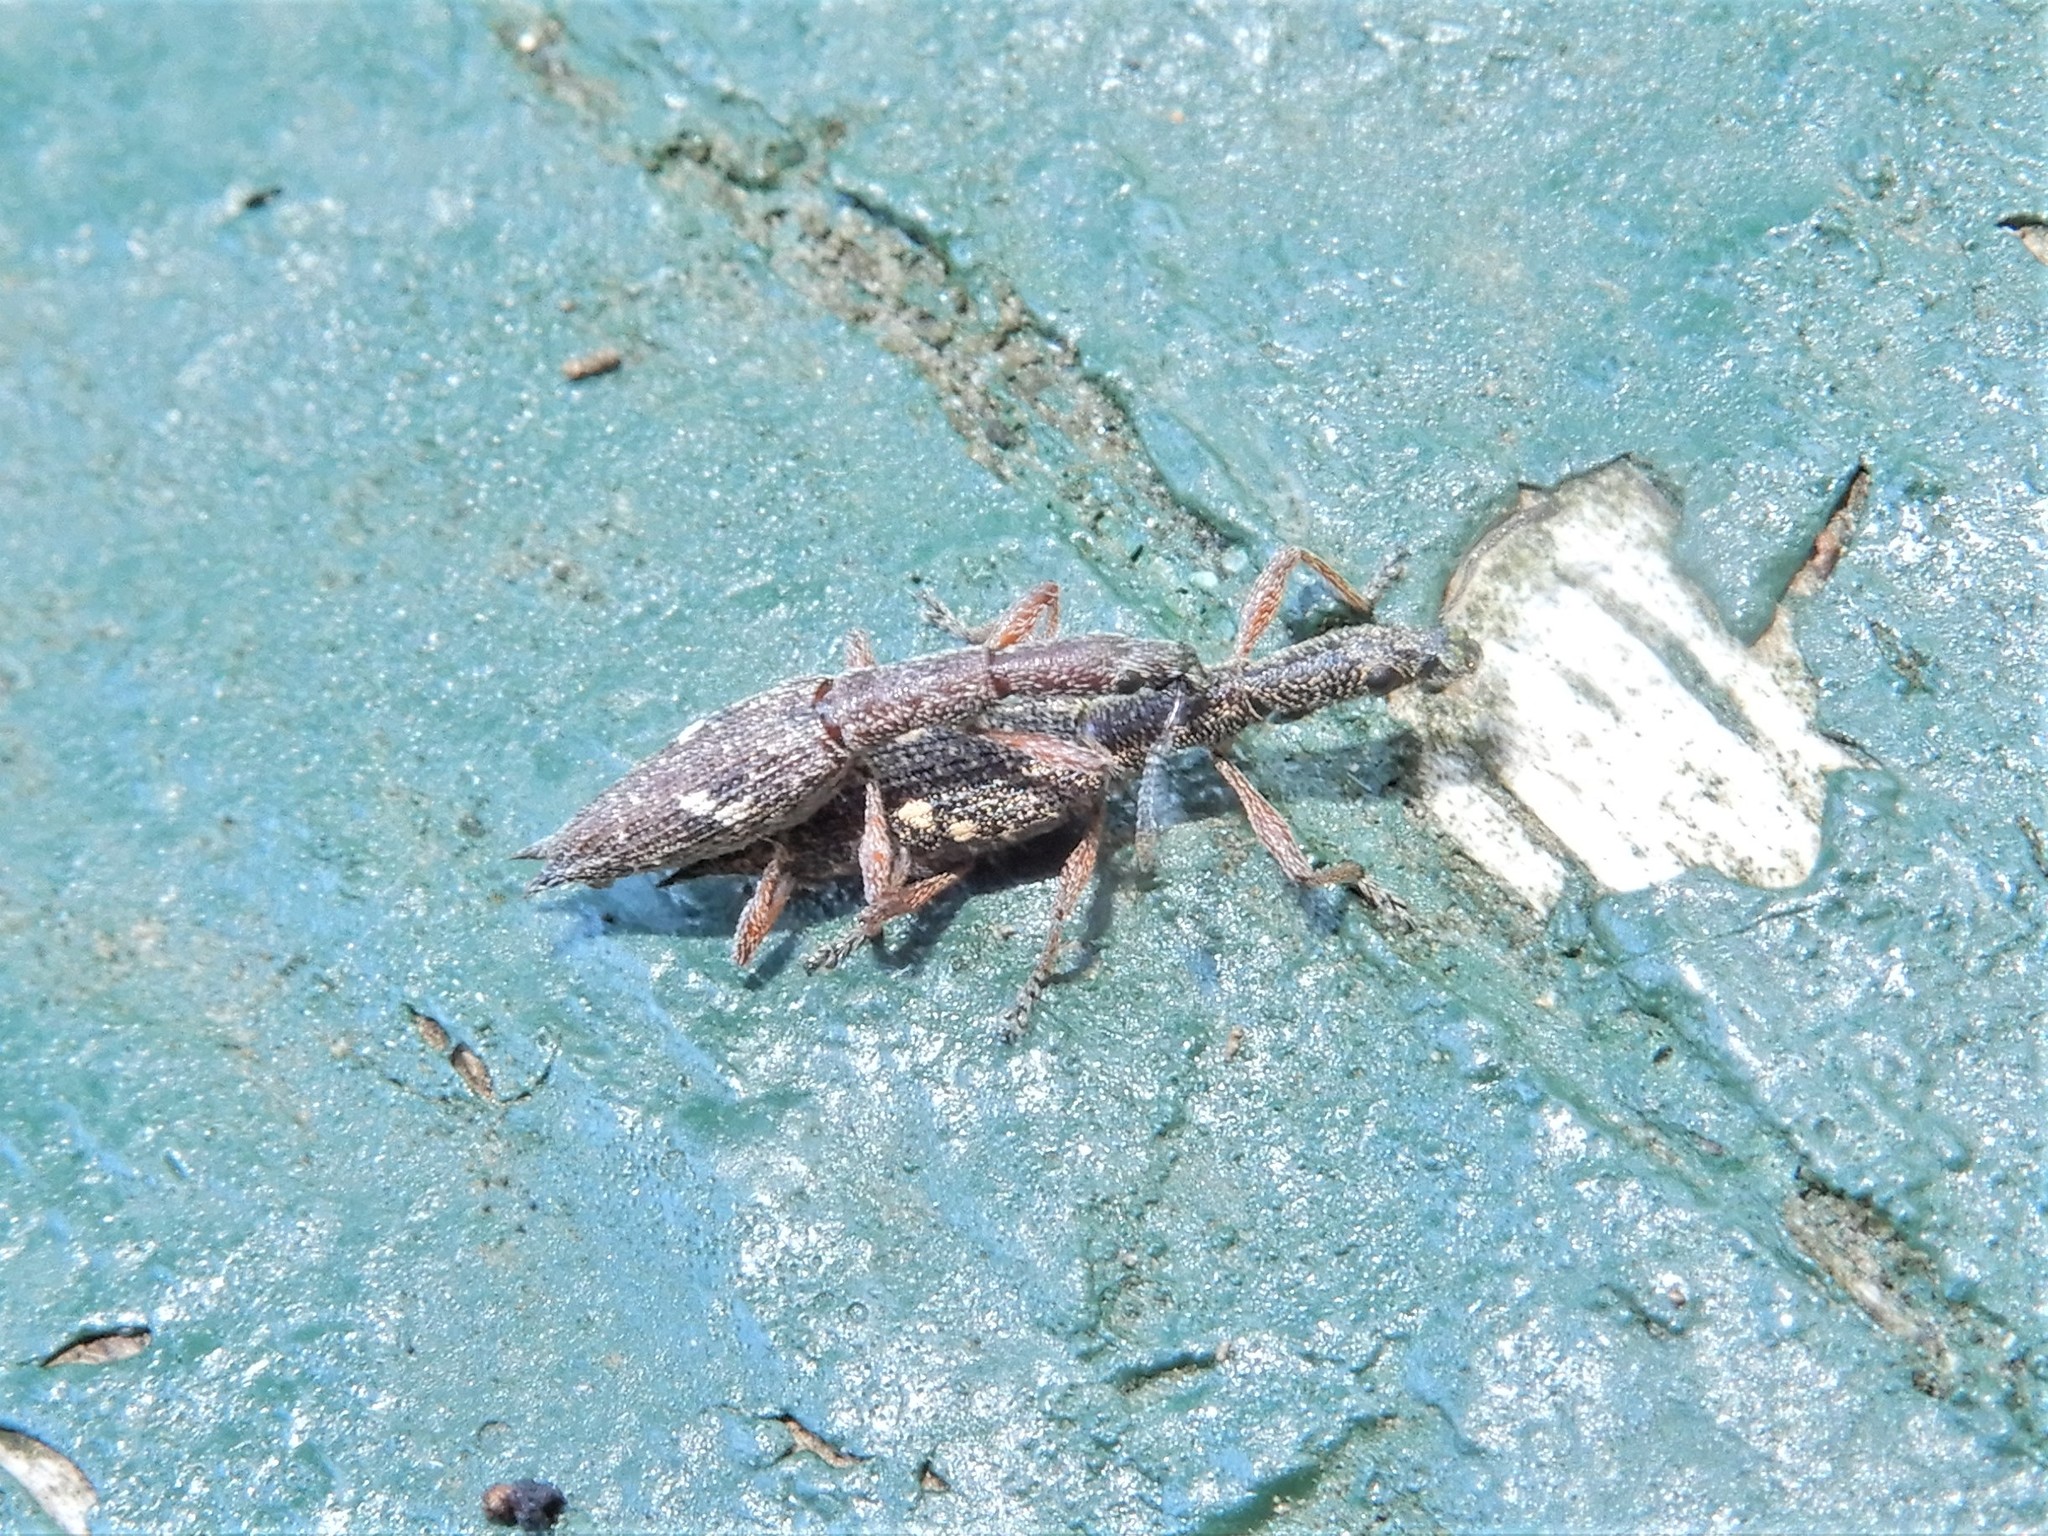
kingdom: Animalia
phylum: Arthropoda
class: Insecta
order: Coleoptera
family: Curculionidae
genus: Rhadinosomus
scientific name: Rhadinosomus acuminatus
